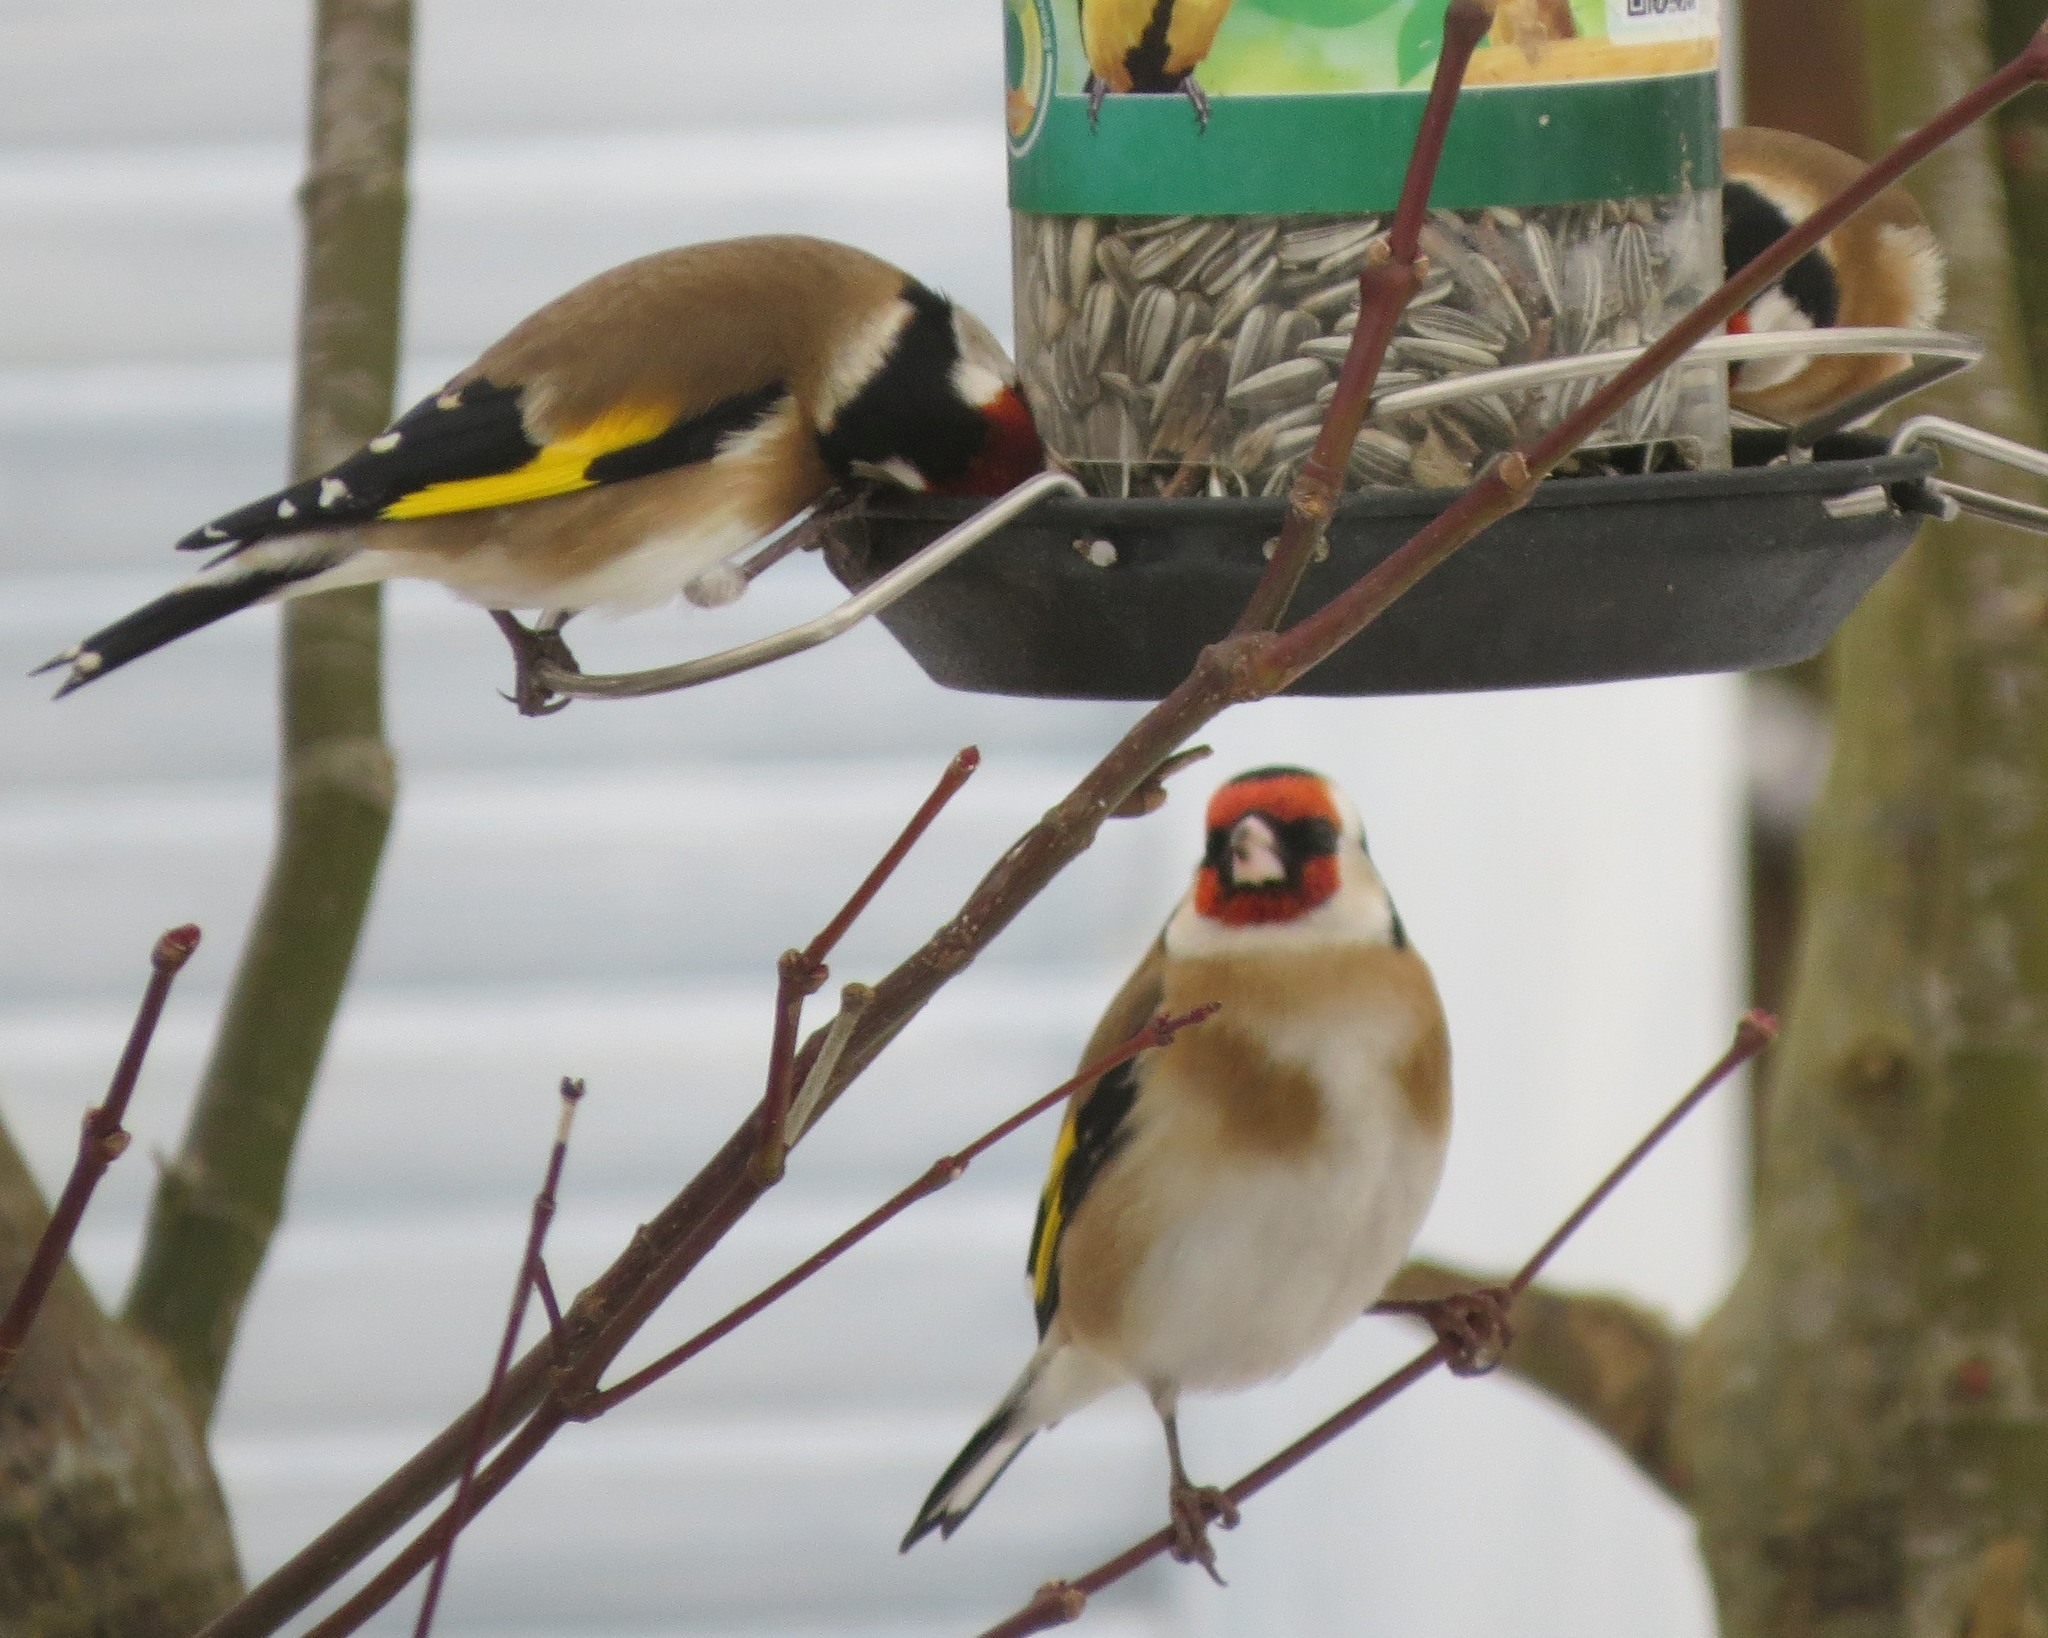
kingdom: Animalia
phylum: Chordata
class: Aves
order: Passeriformes
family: Fringillidae
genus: Carduelis
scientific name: Carduelis carduelis
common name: European goldfinch
